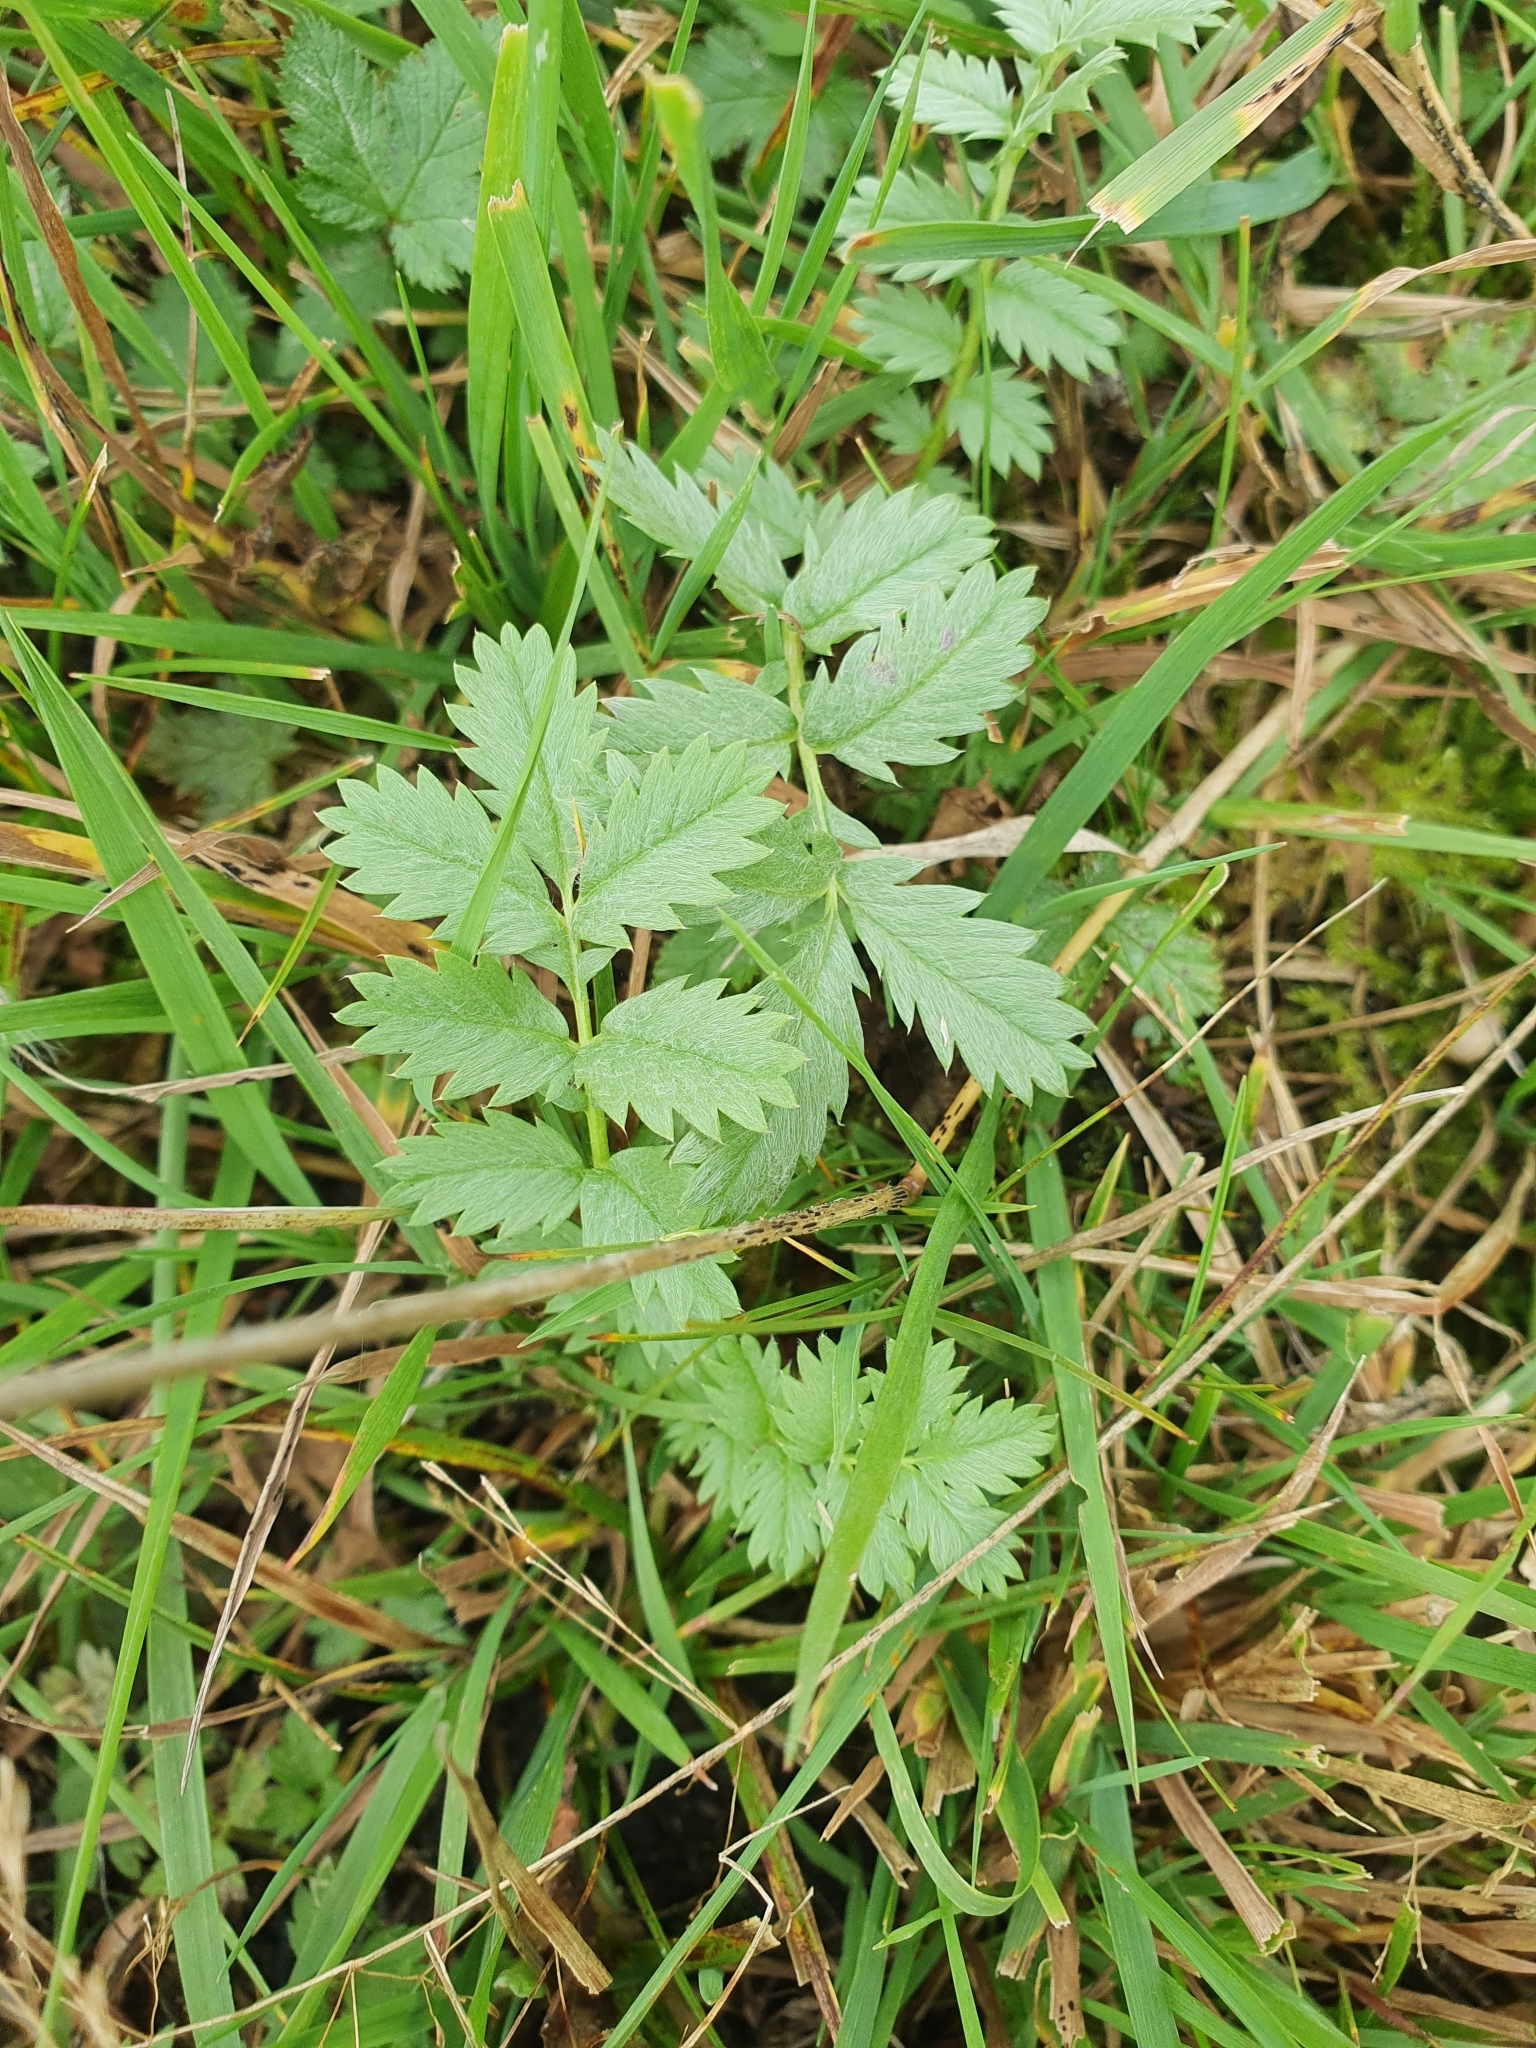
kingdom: Plantae
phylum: Tracheophyta
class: Magnoliopsida
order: Rosales
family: Rosaceae
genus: Argentina
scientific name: Argentina anserina
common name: Common silverweed
